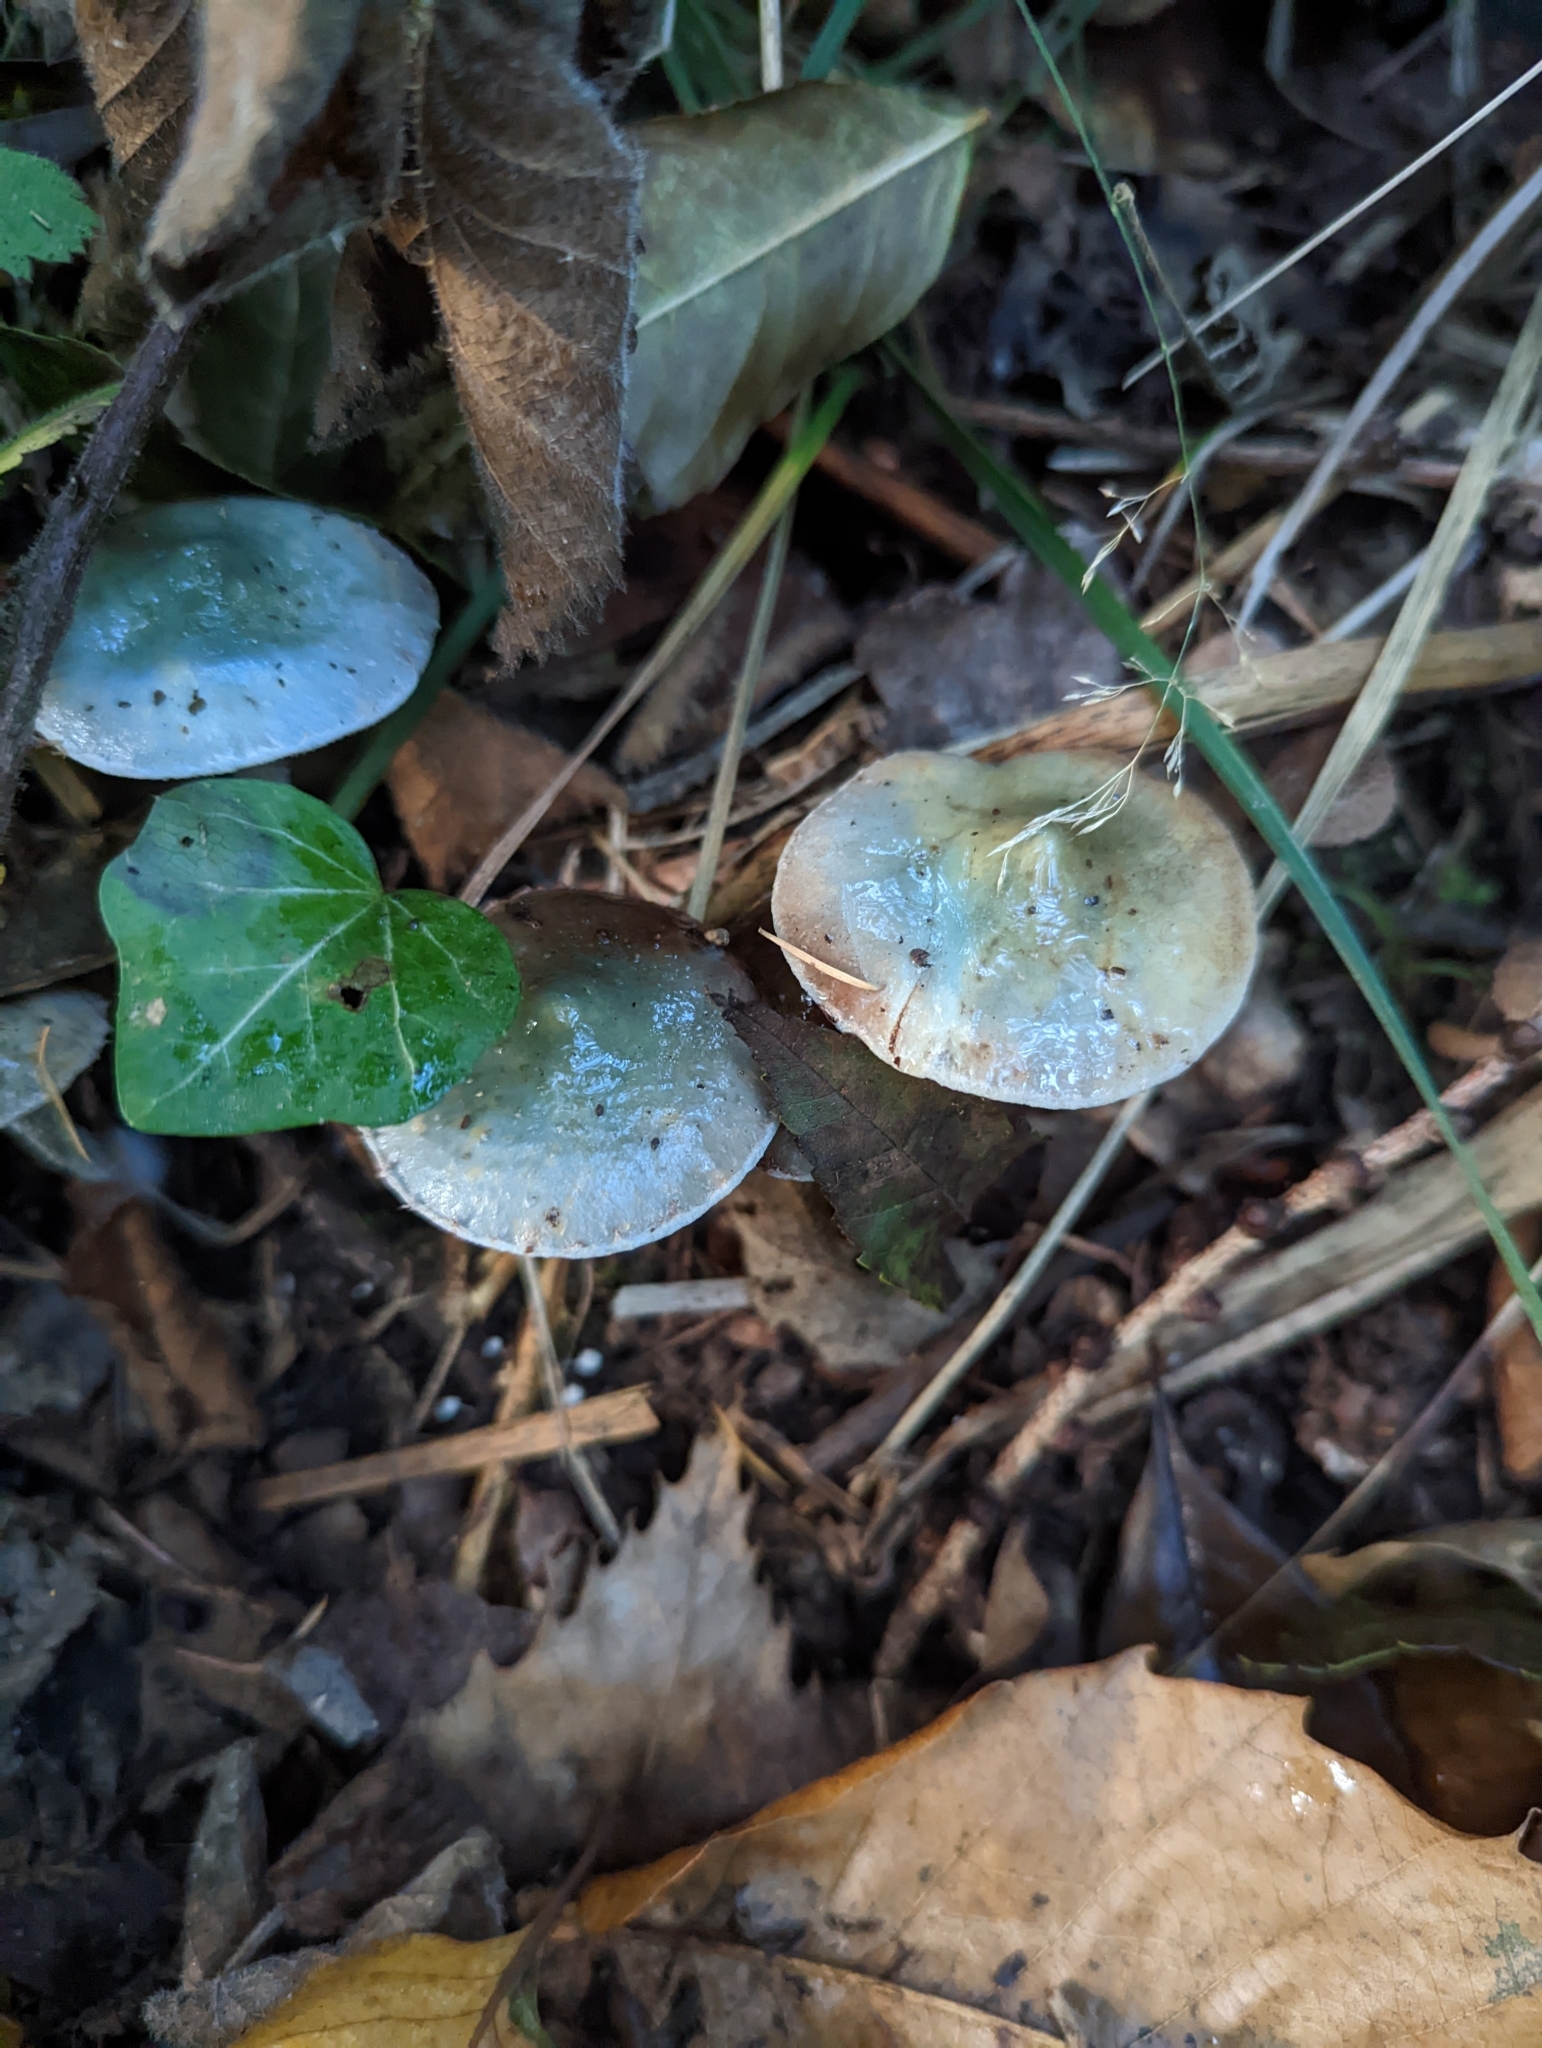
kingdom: Fungi
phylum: Basidiomycota
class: Agaricomycetes
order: Agaricales
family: Strophariaceae
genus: Stropharia
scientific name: Stropharia caerulea
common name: Blue roundhead
